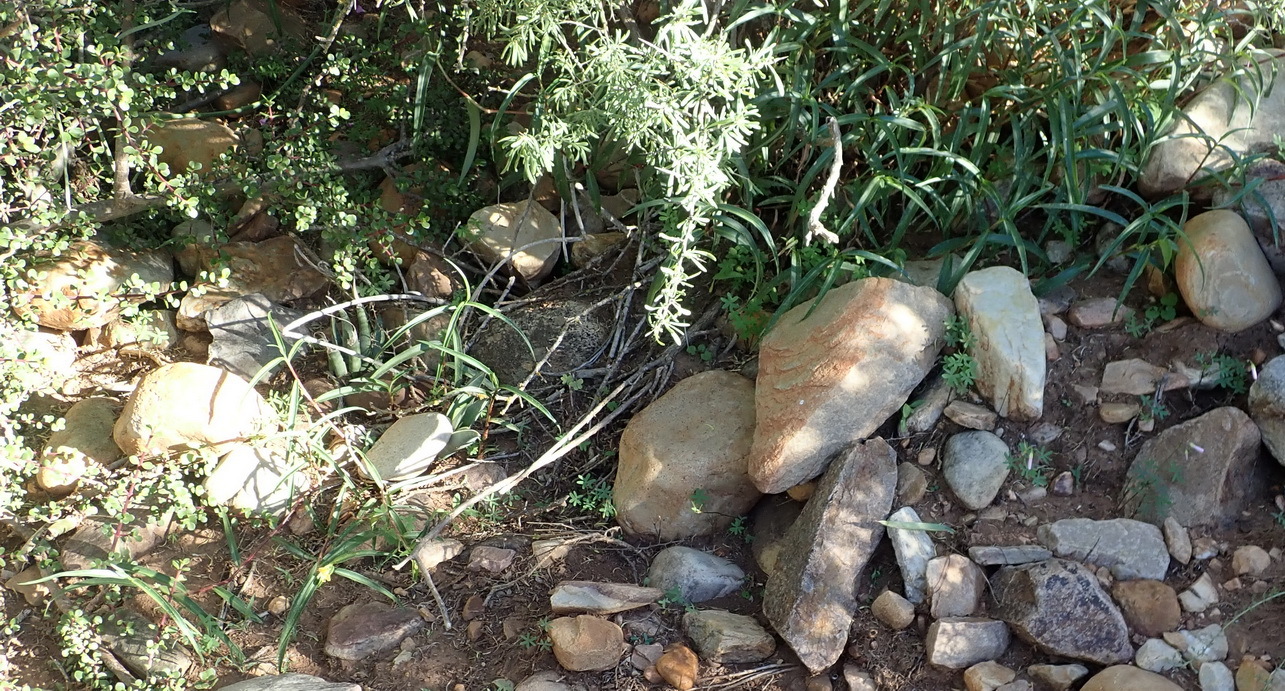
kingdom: Plantae
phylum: Tracheophyta
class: Liliopsida
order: Commelinales
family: Commelinaceae
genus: Commelina
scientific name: Commelina africana
